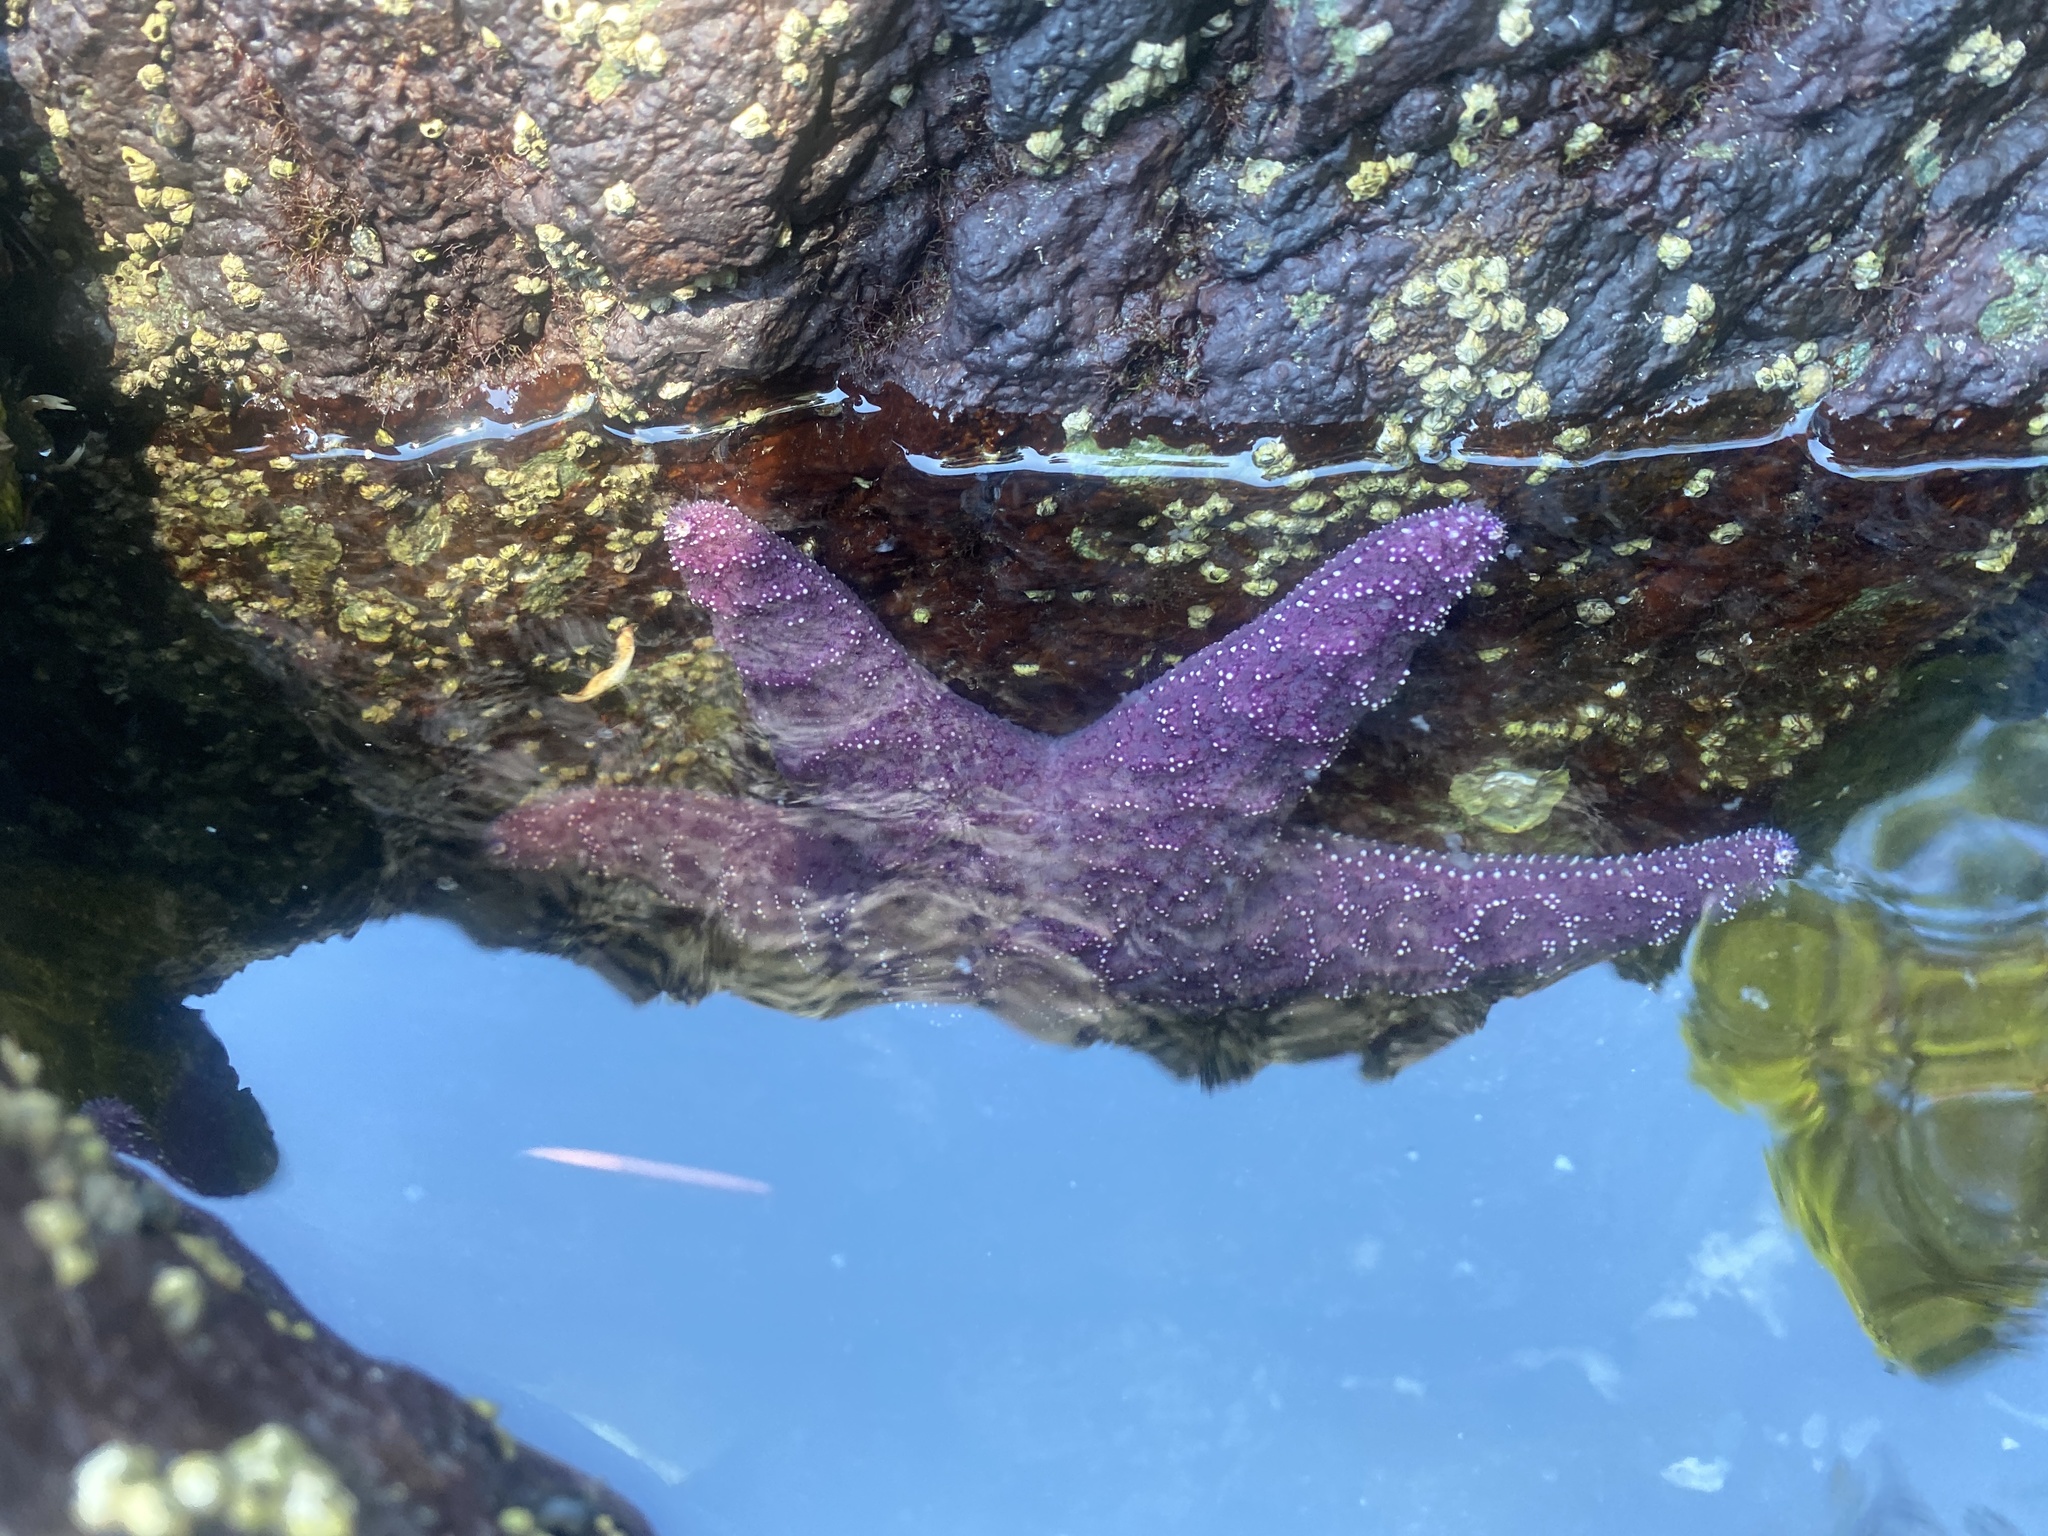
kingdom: Animalia
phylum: Echinodermata
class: Asteroidea
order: Forcipulatida
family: Asteriidae
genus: Pisaster
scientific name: Pisaster ochraceus
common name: Ochre stars
